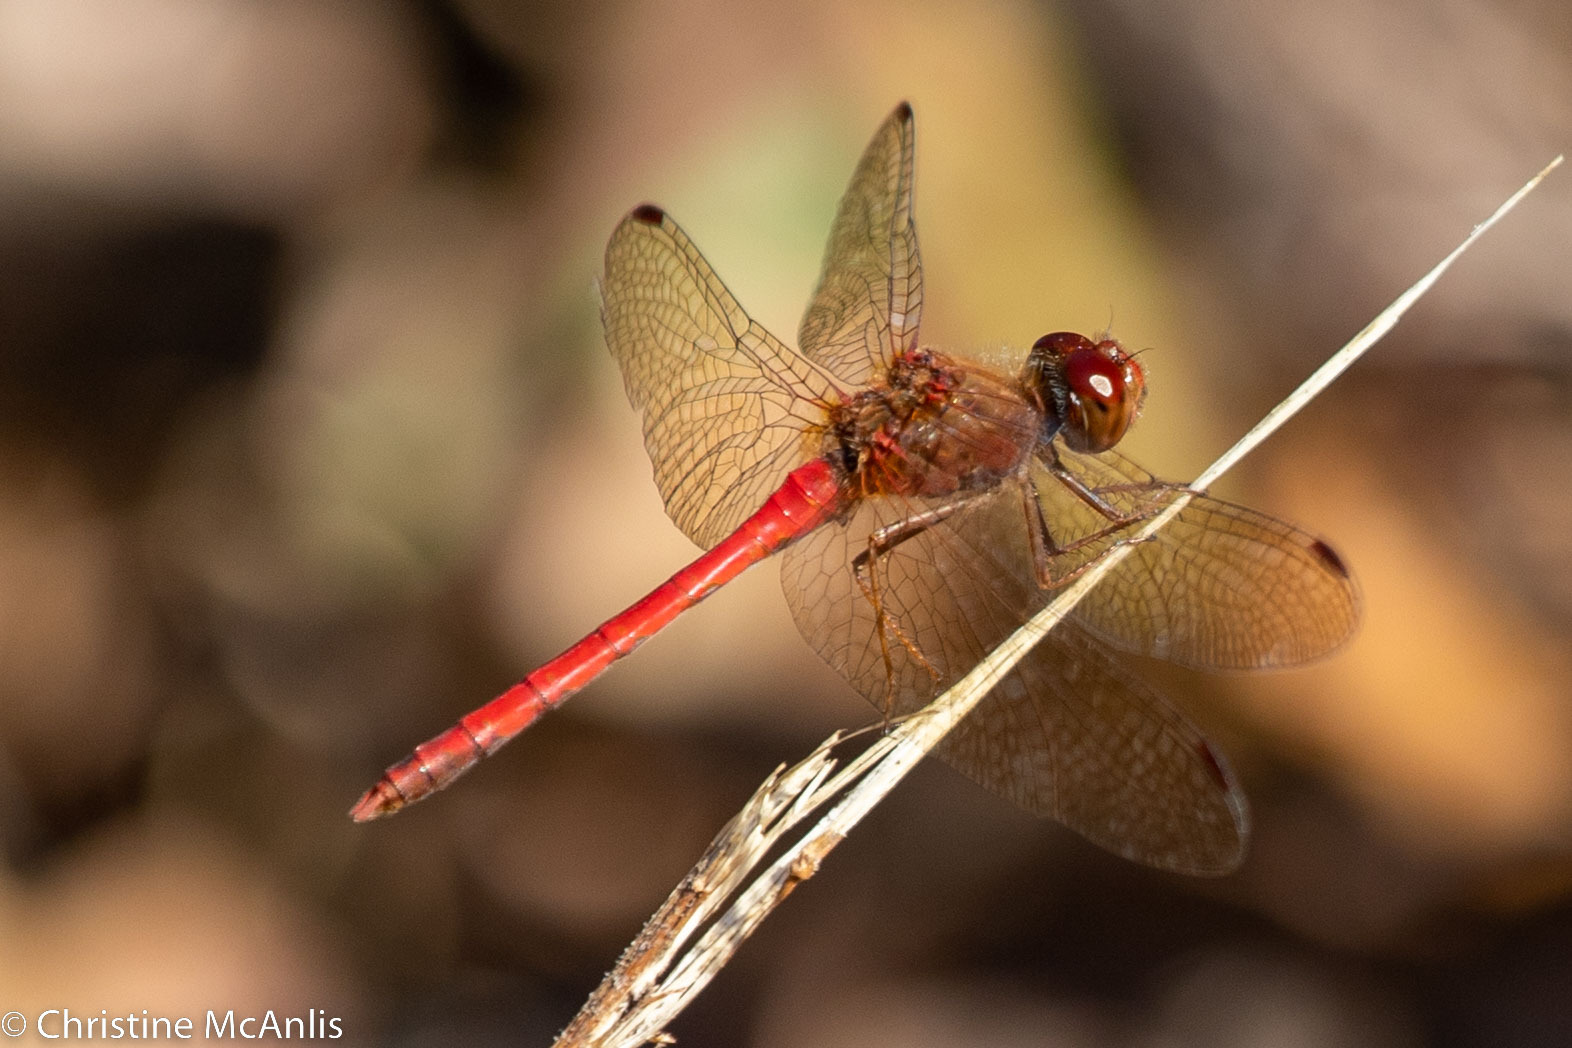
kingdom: Animalia
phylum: Arthropoda
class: Insecta
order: Odonata
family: Libellulidae
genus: Sympetrum
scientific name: Sympetrum vicinum
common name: Autumn meadowhawk
